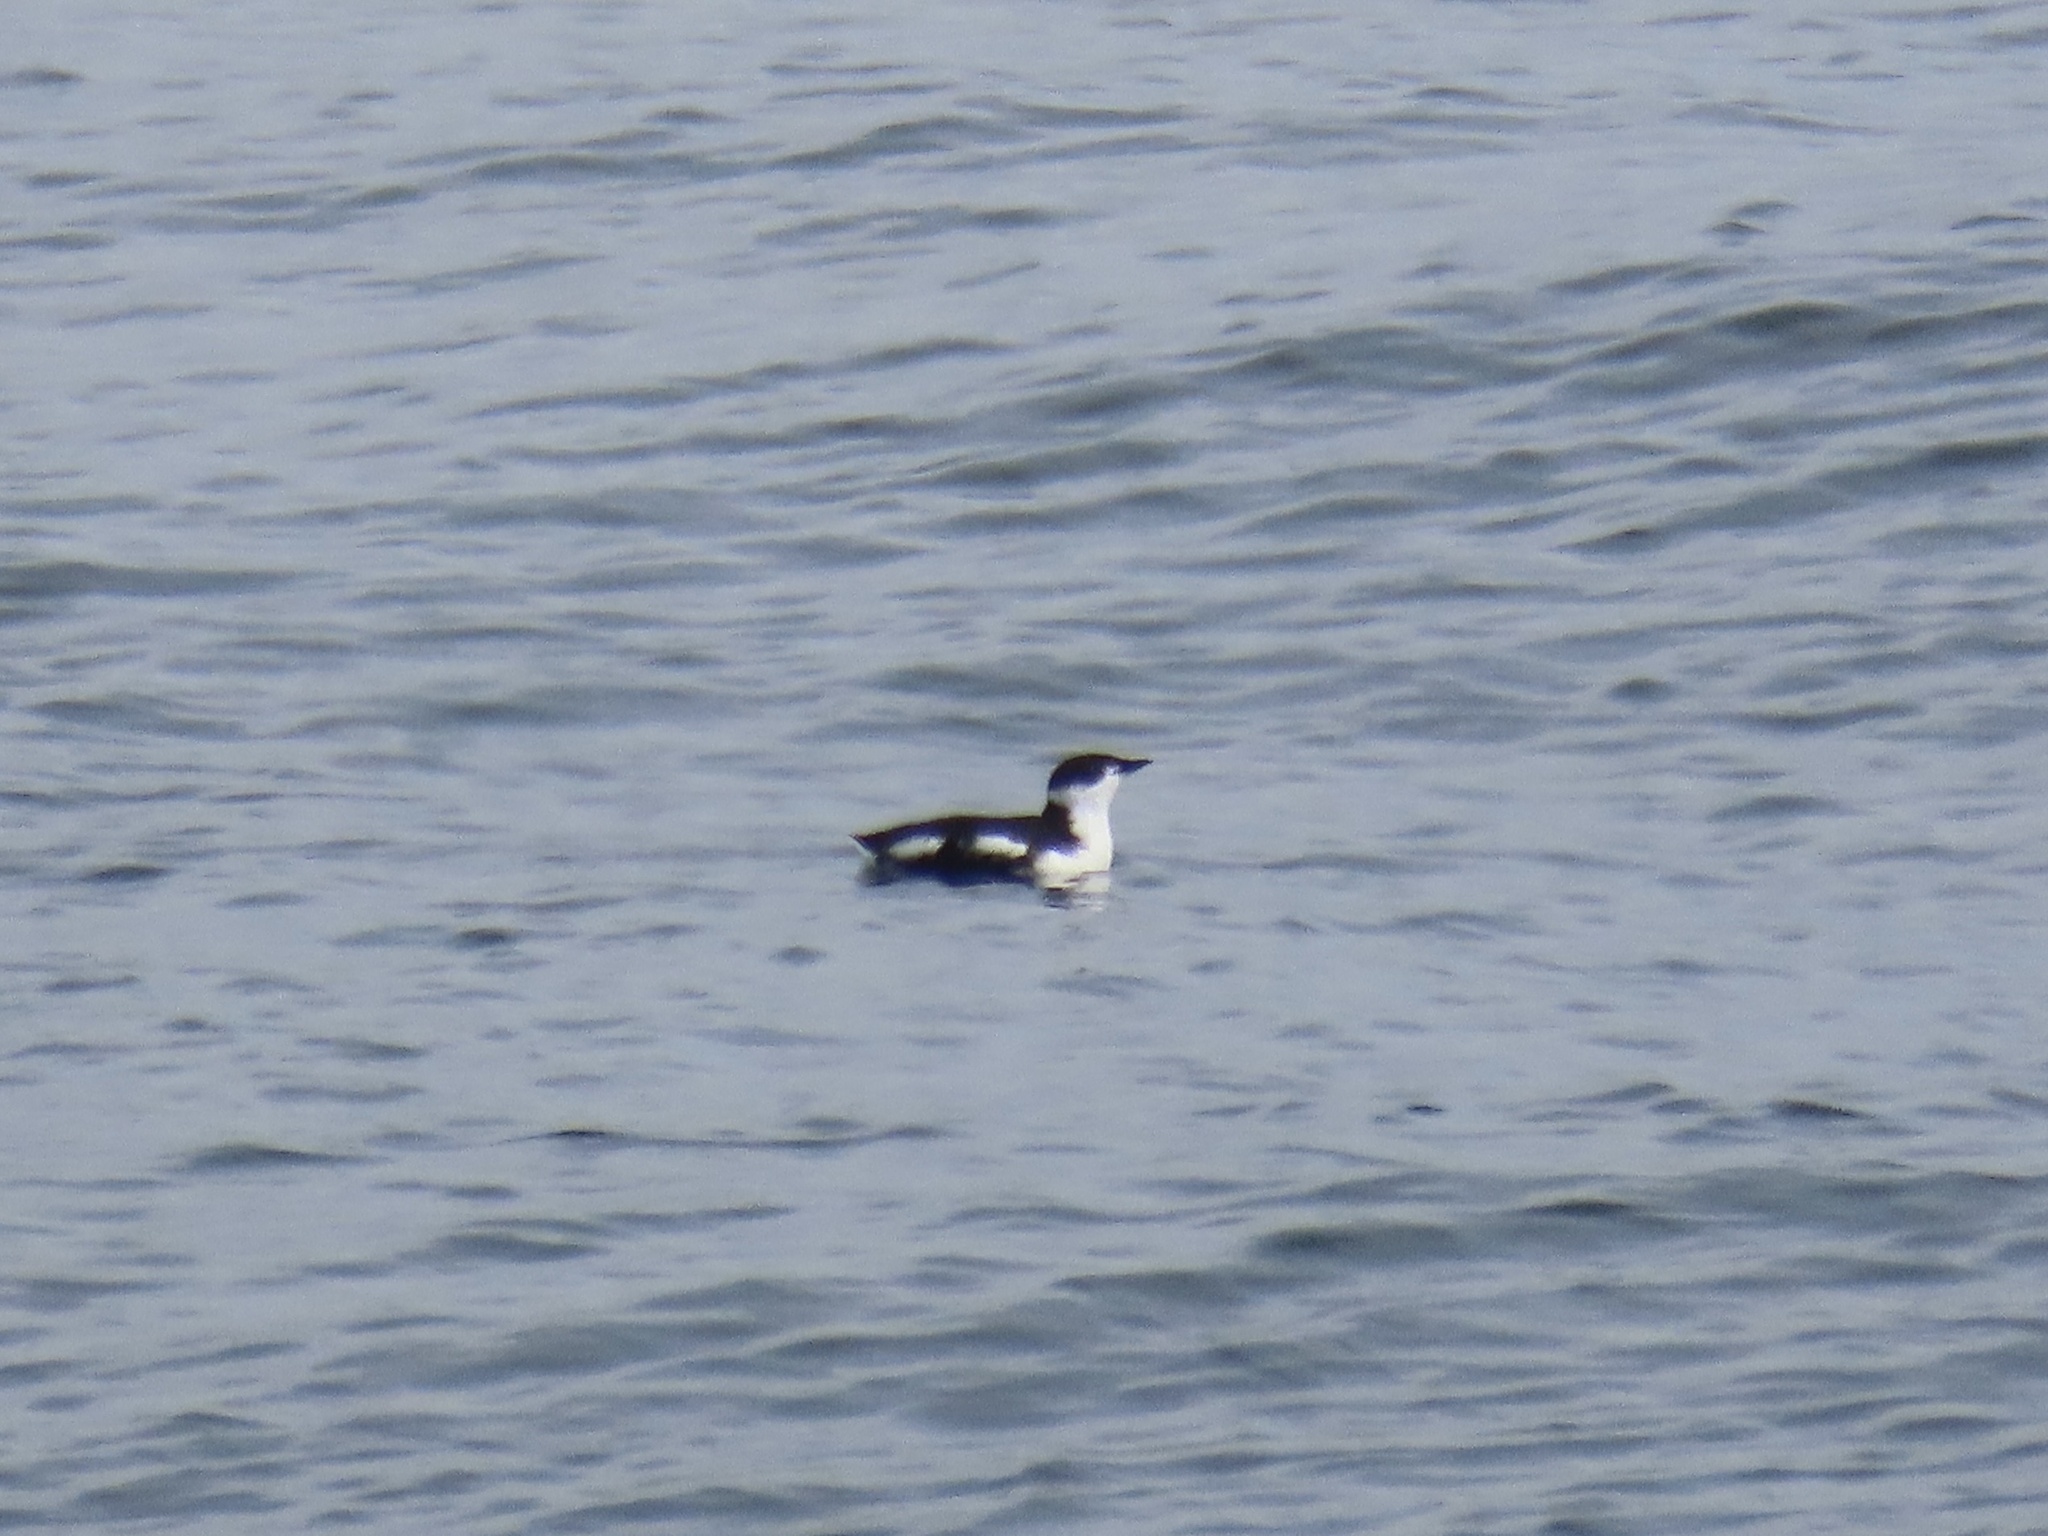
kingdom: Animalia
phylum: Chordata
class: Aves
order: Charadriiformes
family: Alcidae
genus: Brachyramphus
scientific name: Brachyramphus marmoratus
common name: Marbled murrelet
